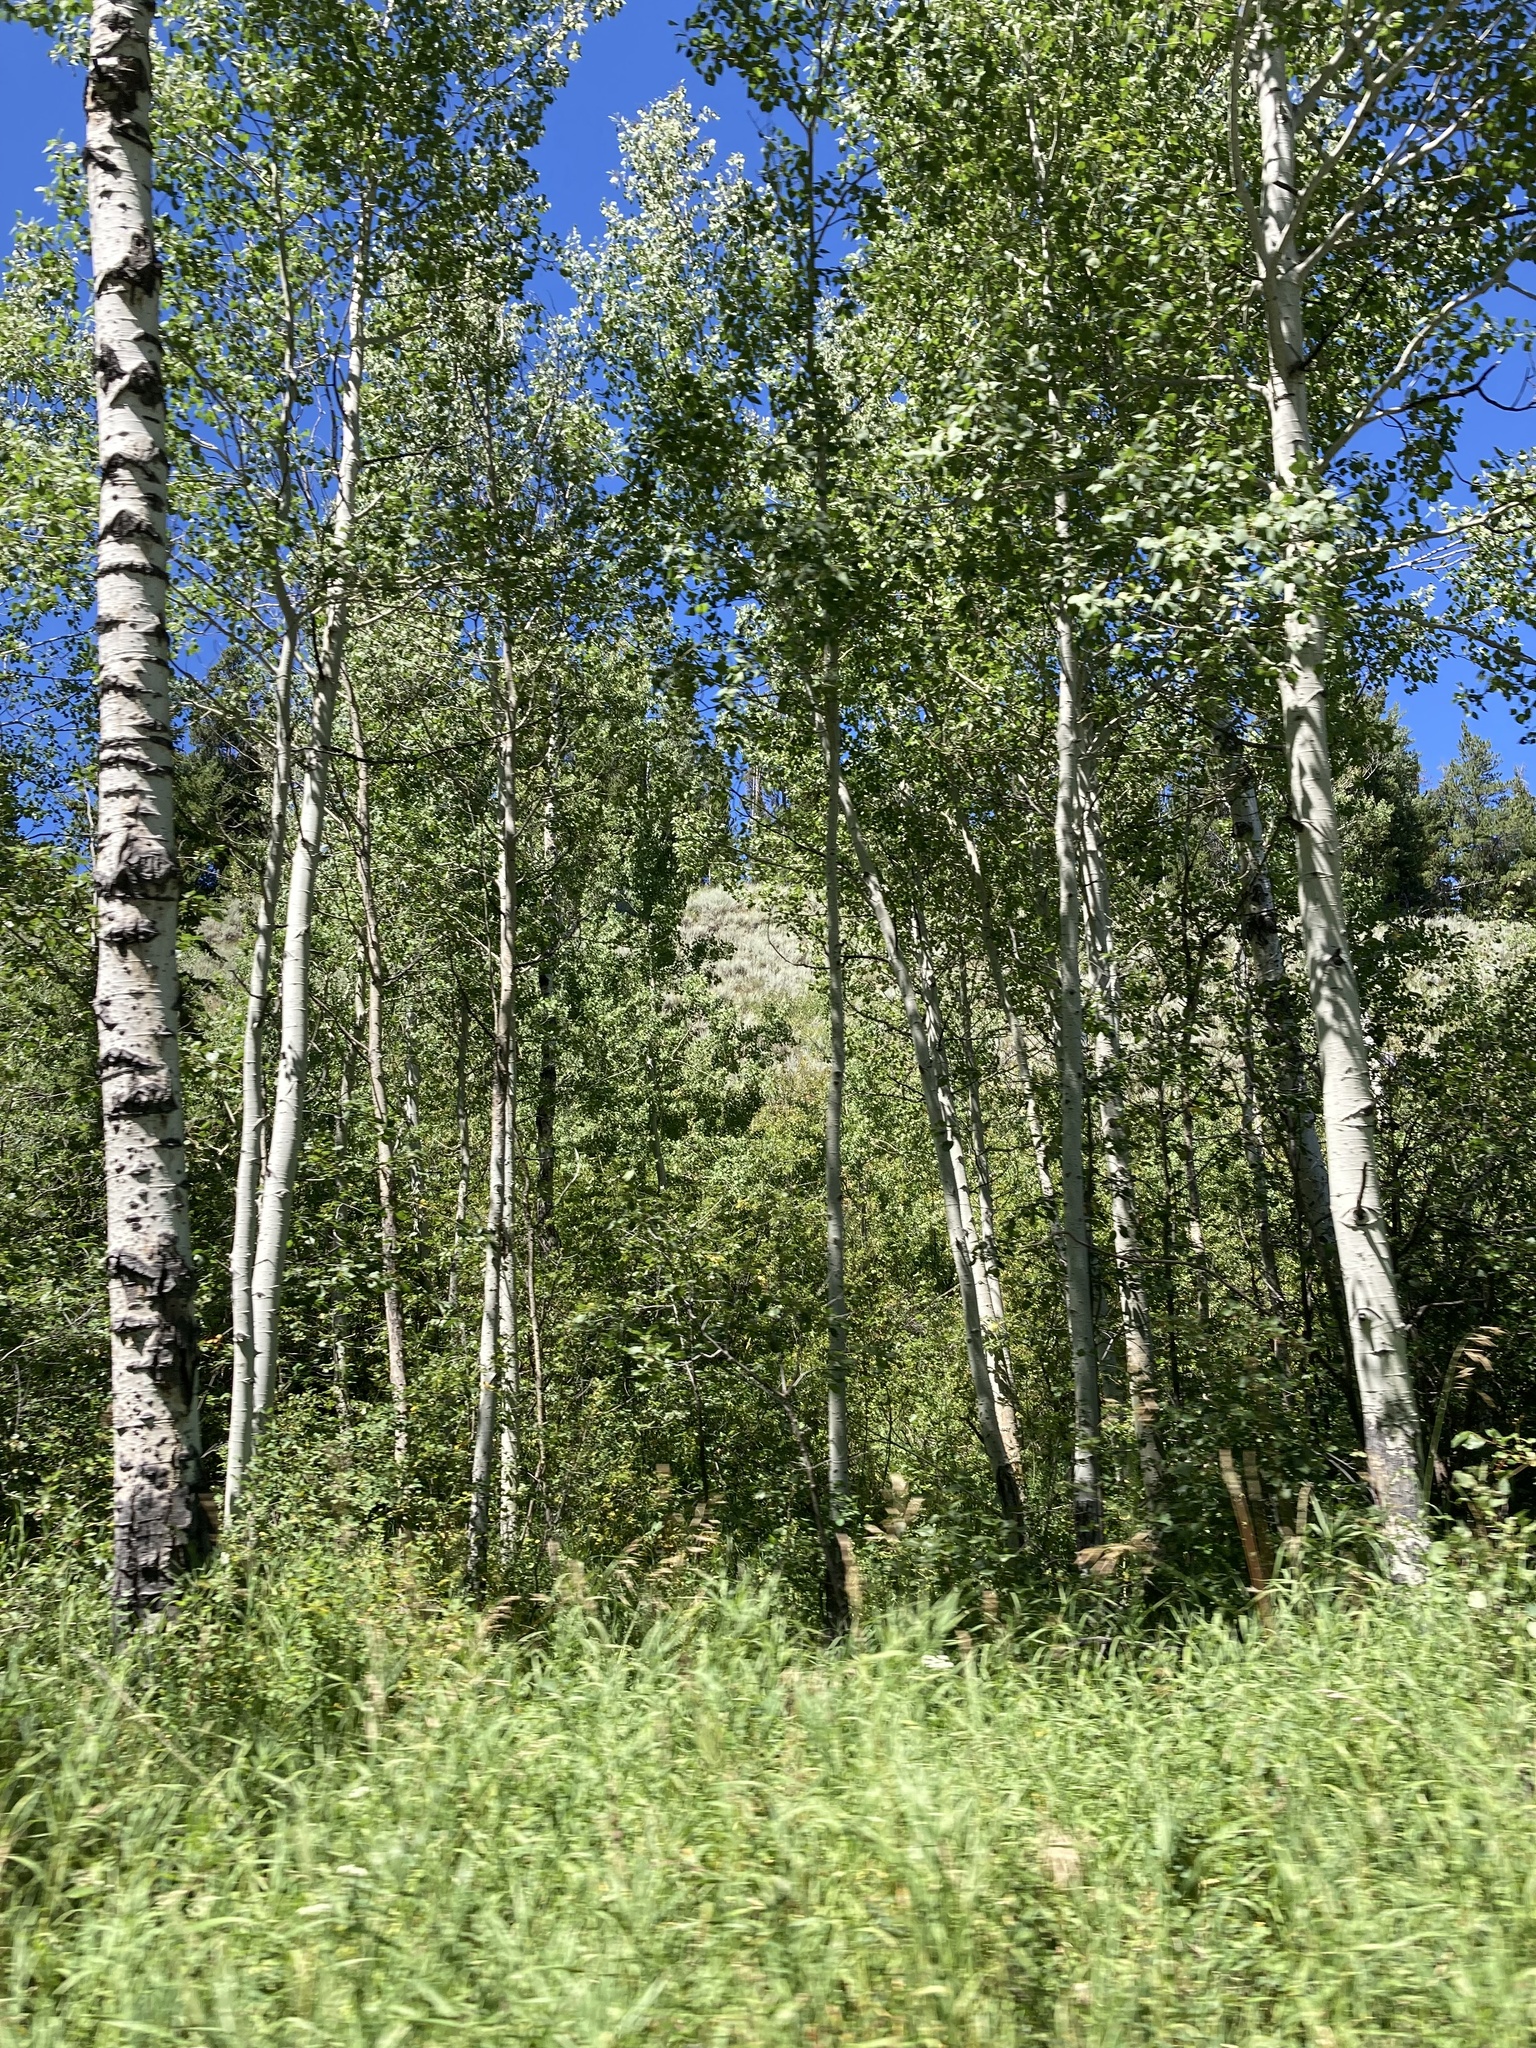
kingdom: Plantae
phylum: Tracheophyta
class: Magnoliopsida
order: Malpighiales
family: Salicaceae
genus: Populus
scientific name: Populus tremuloides
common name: Quaking aspen
